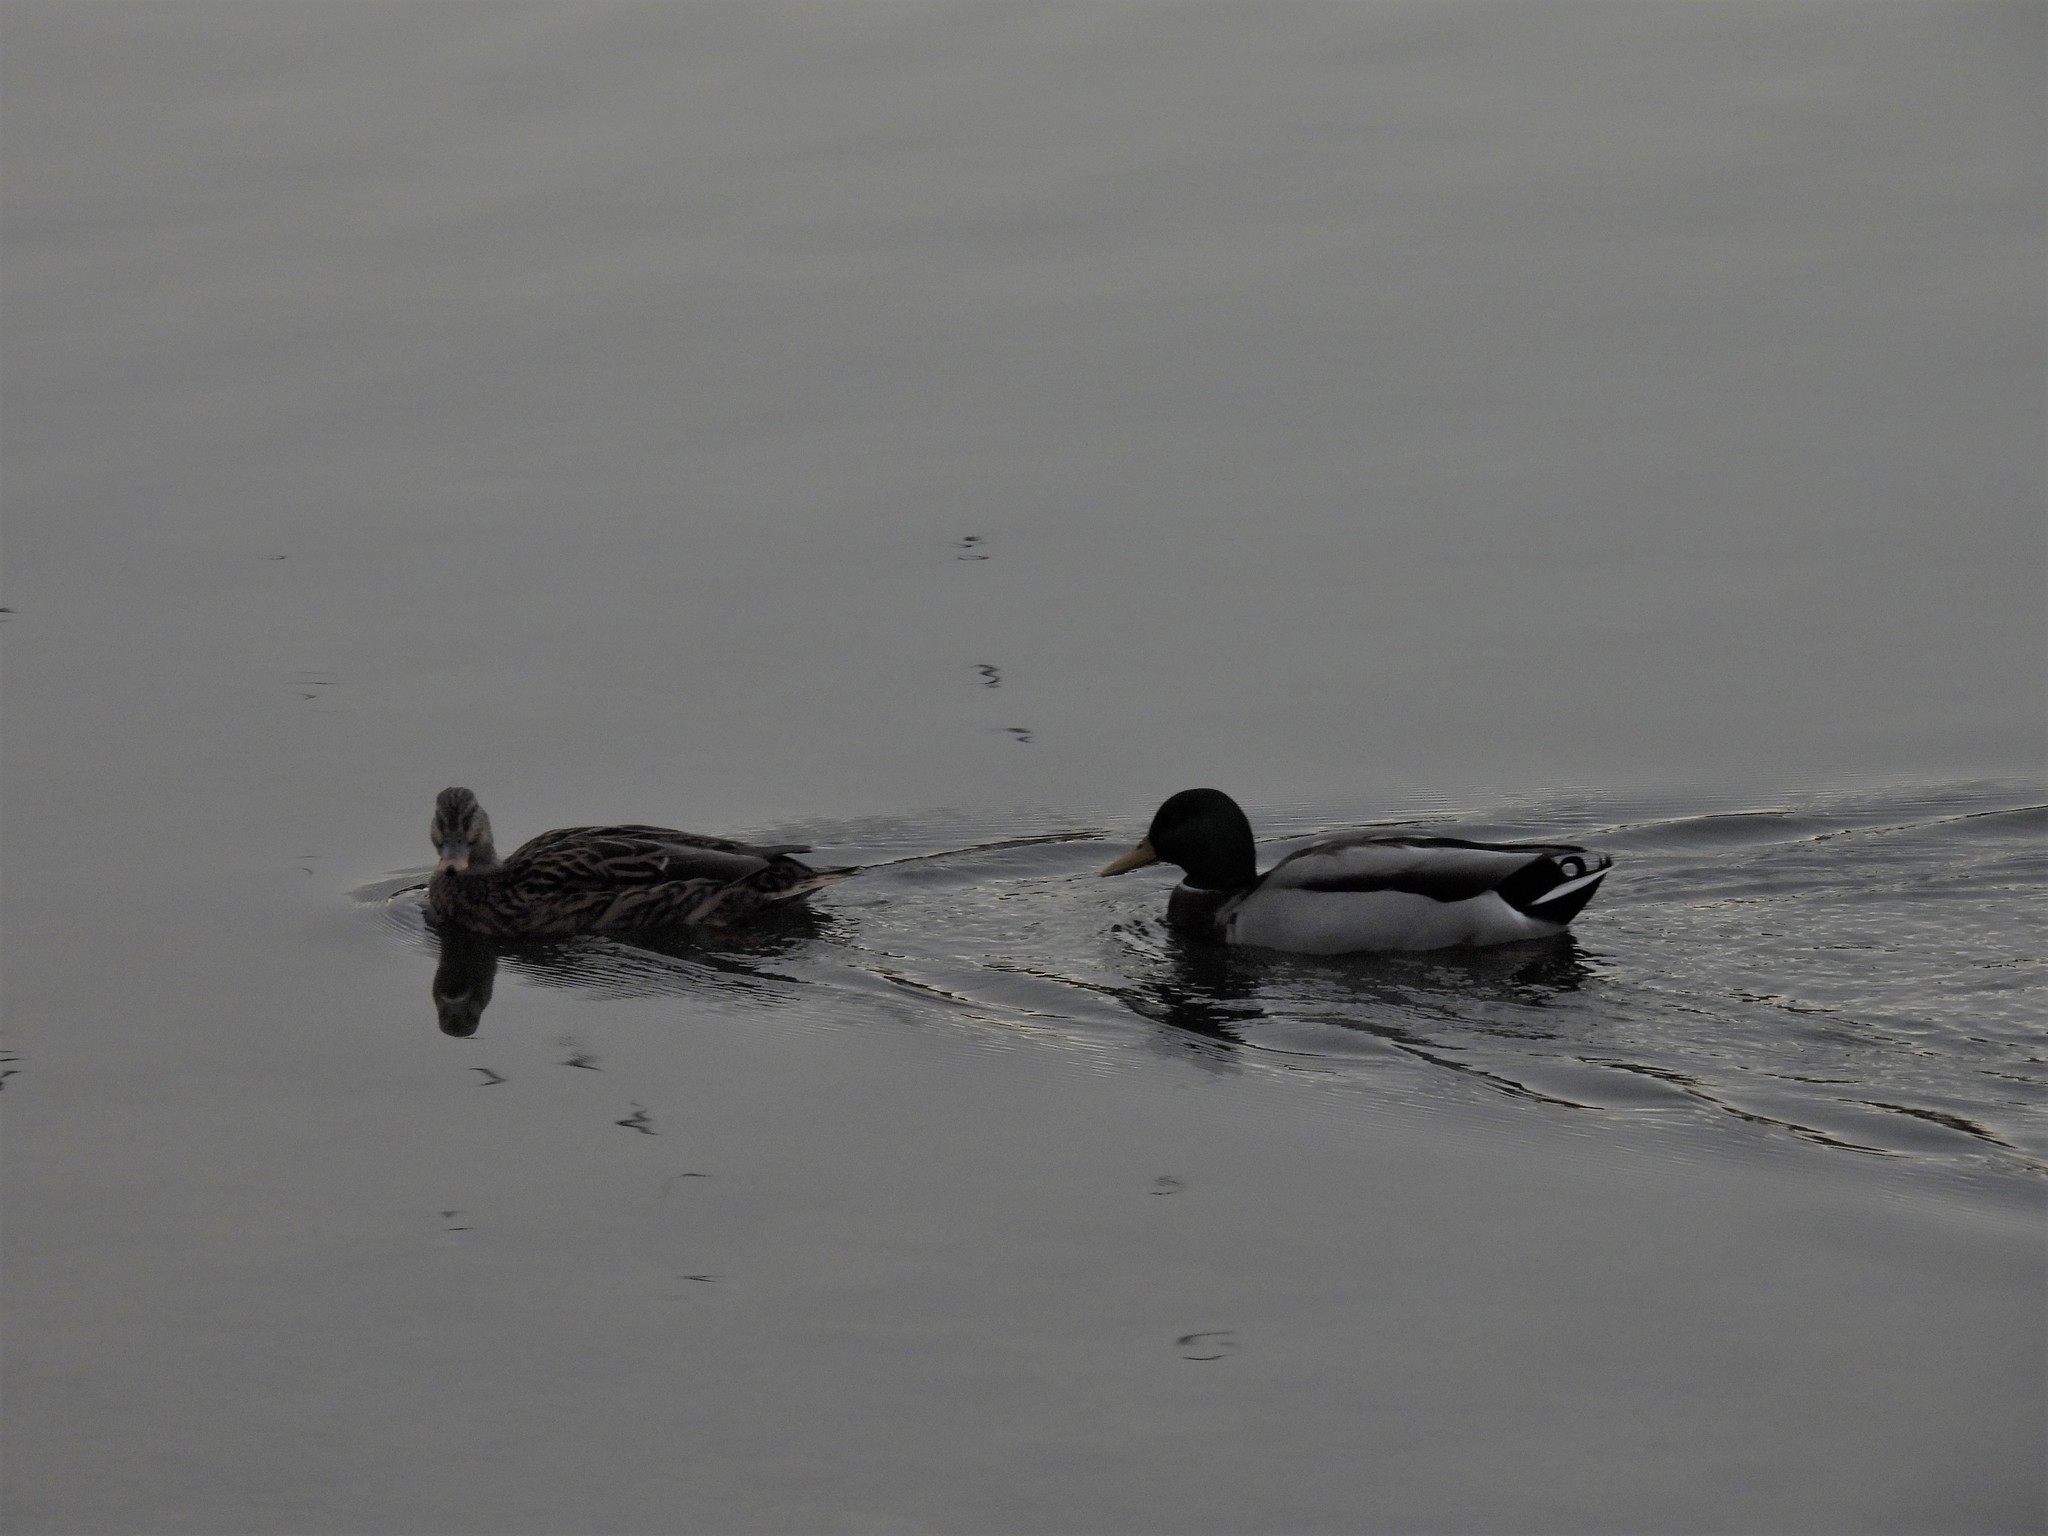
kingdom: Animalia
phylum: Chordata
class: Aves
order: Anseriformes
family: Anatidae
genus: Anas
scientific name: Anas platyrhynchos
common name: Mallard
